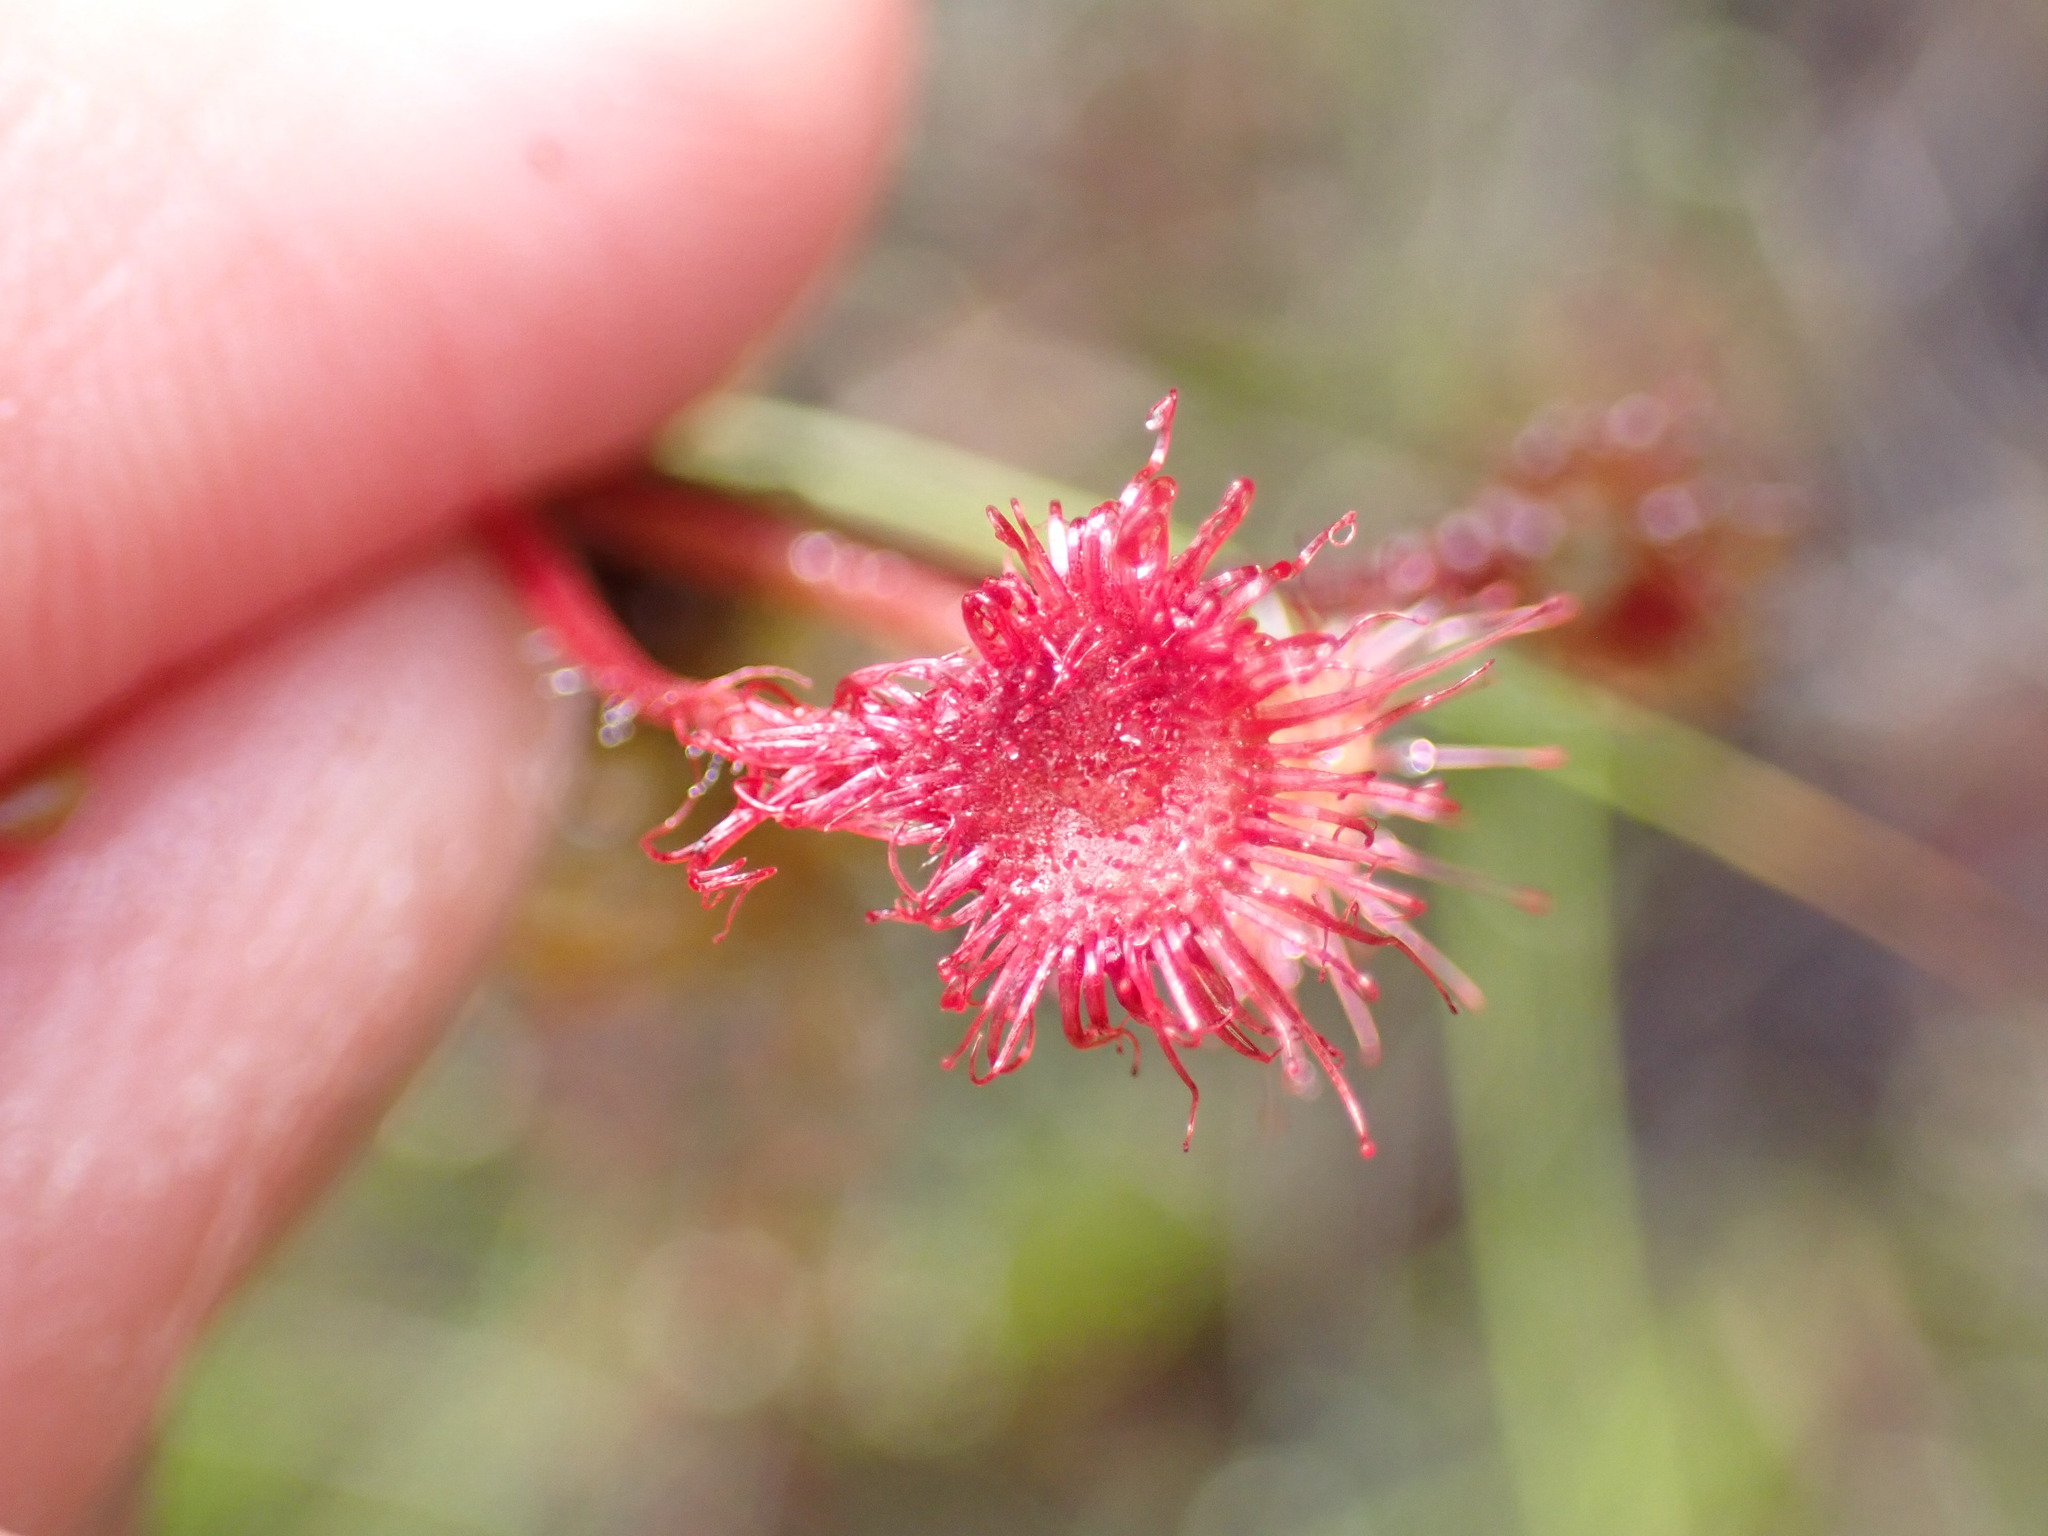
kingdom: Plantae
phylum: Tracheophyta
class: Magnoliopsida
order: Caryophyllales
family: Droseraceae
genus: Drosera
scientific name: Drosera rotundifolia
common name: Round-leaved sundew
